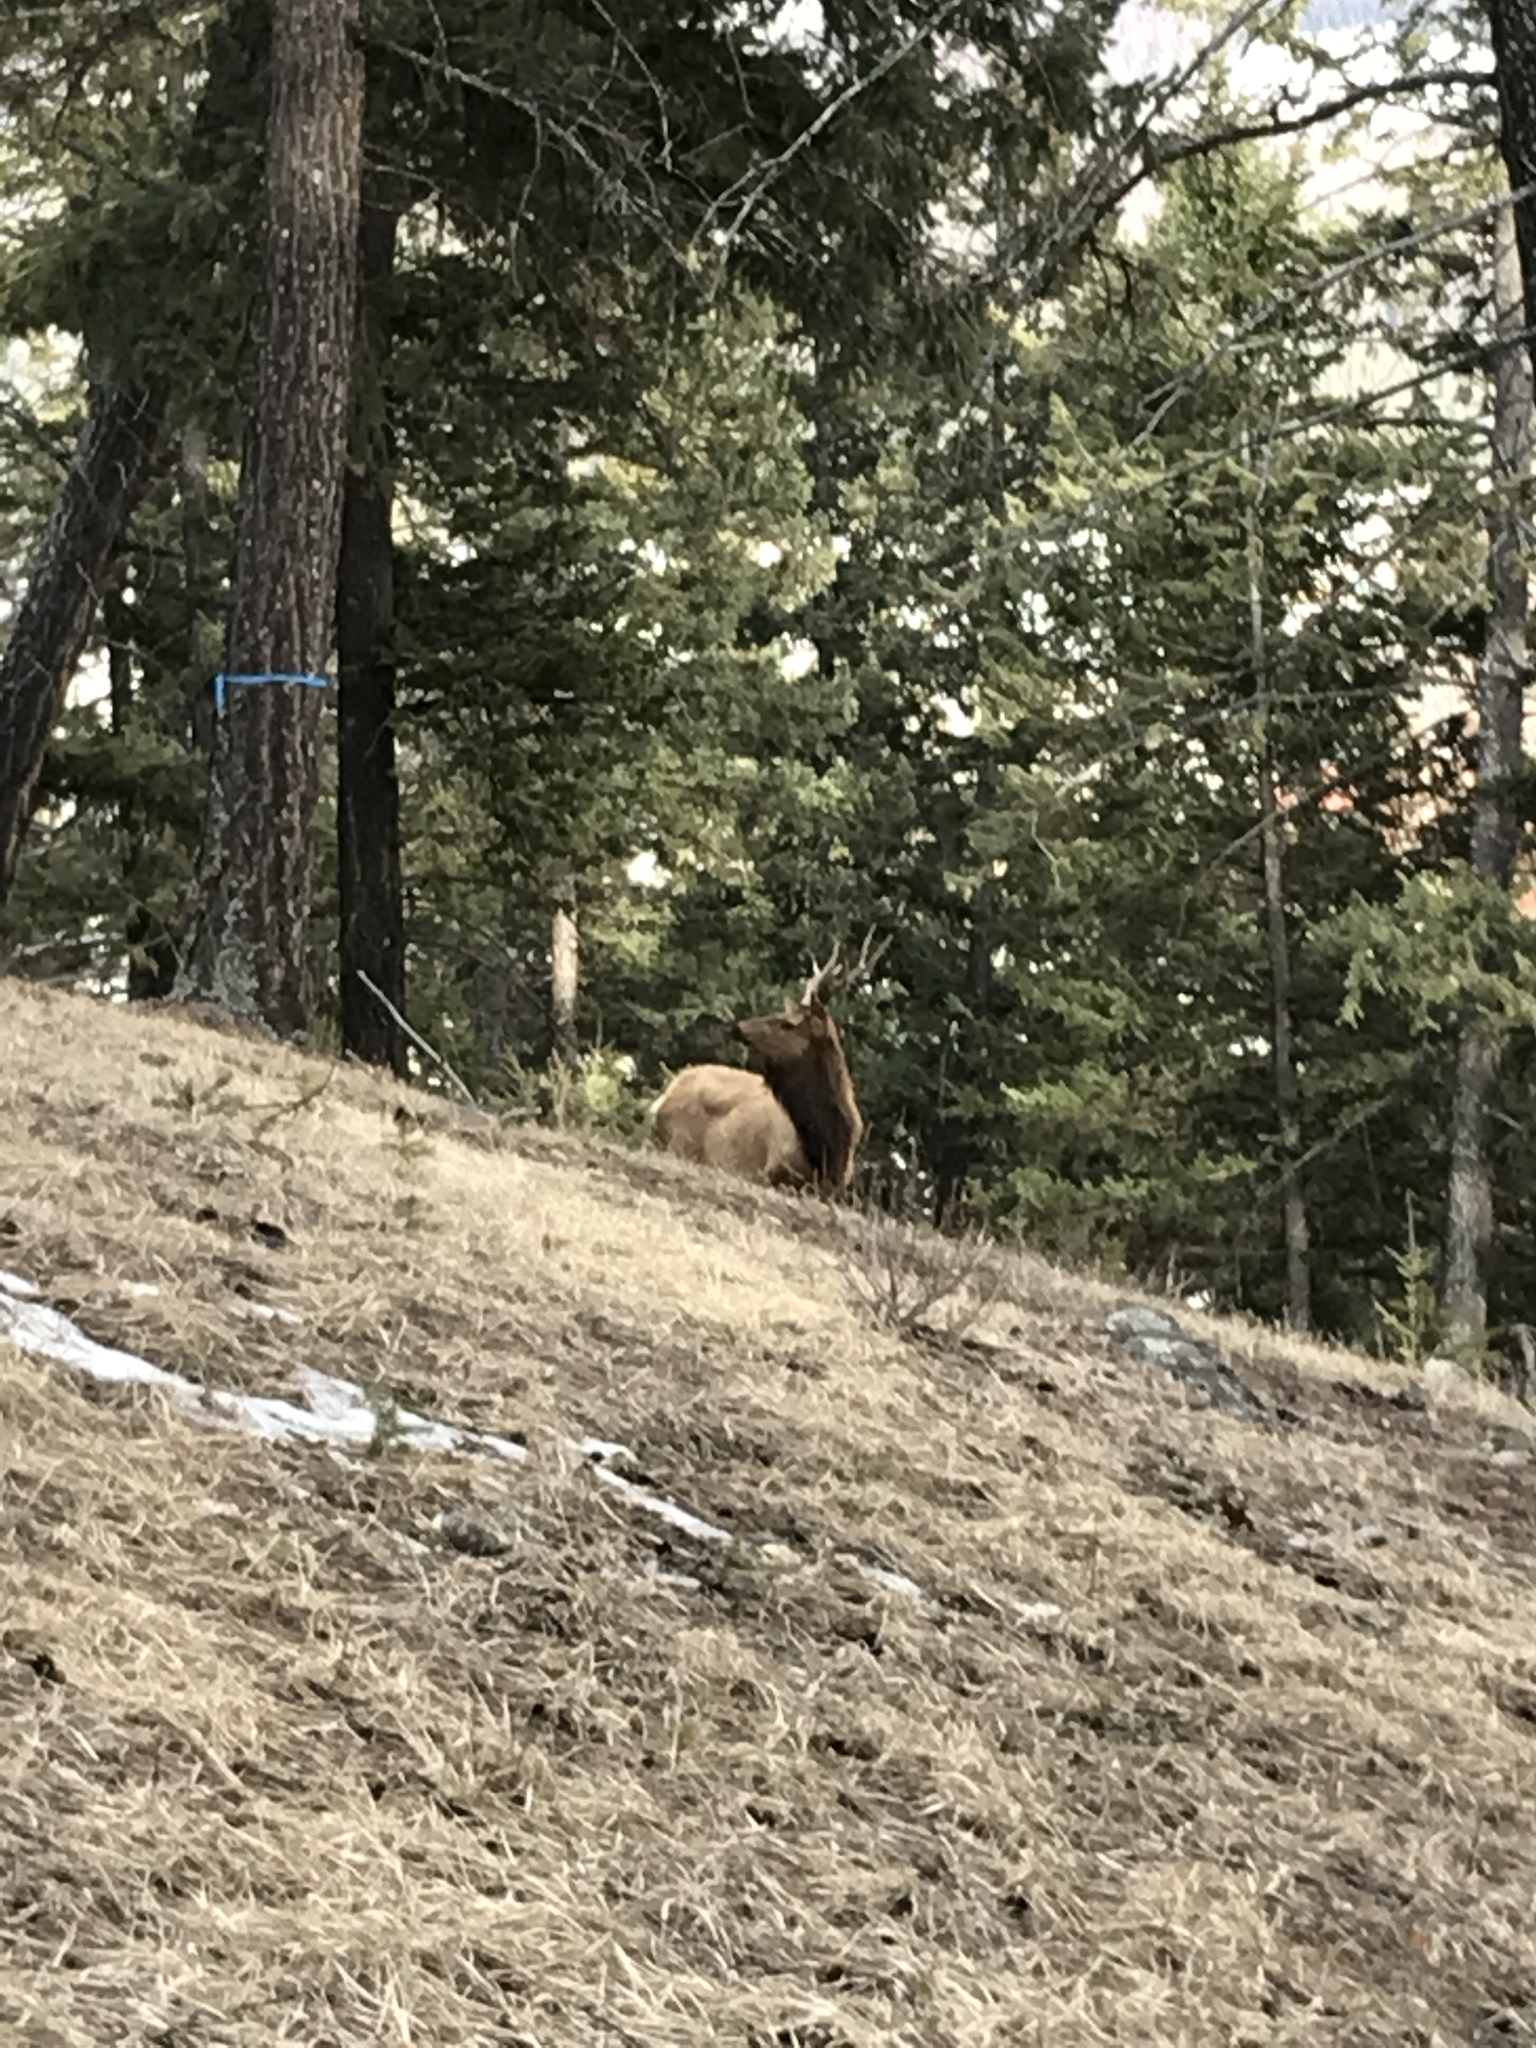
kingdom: Animalia
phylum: Chordata
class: Mammalia
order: Artiodactyla
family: Cervidae
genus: Cervus
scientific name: Cervus elaphus
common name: Red deer
